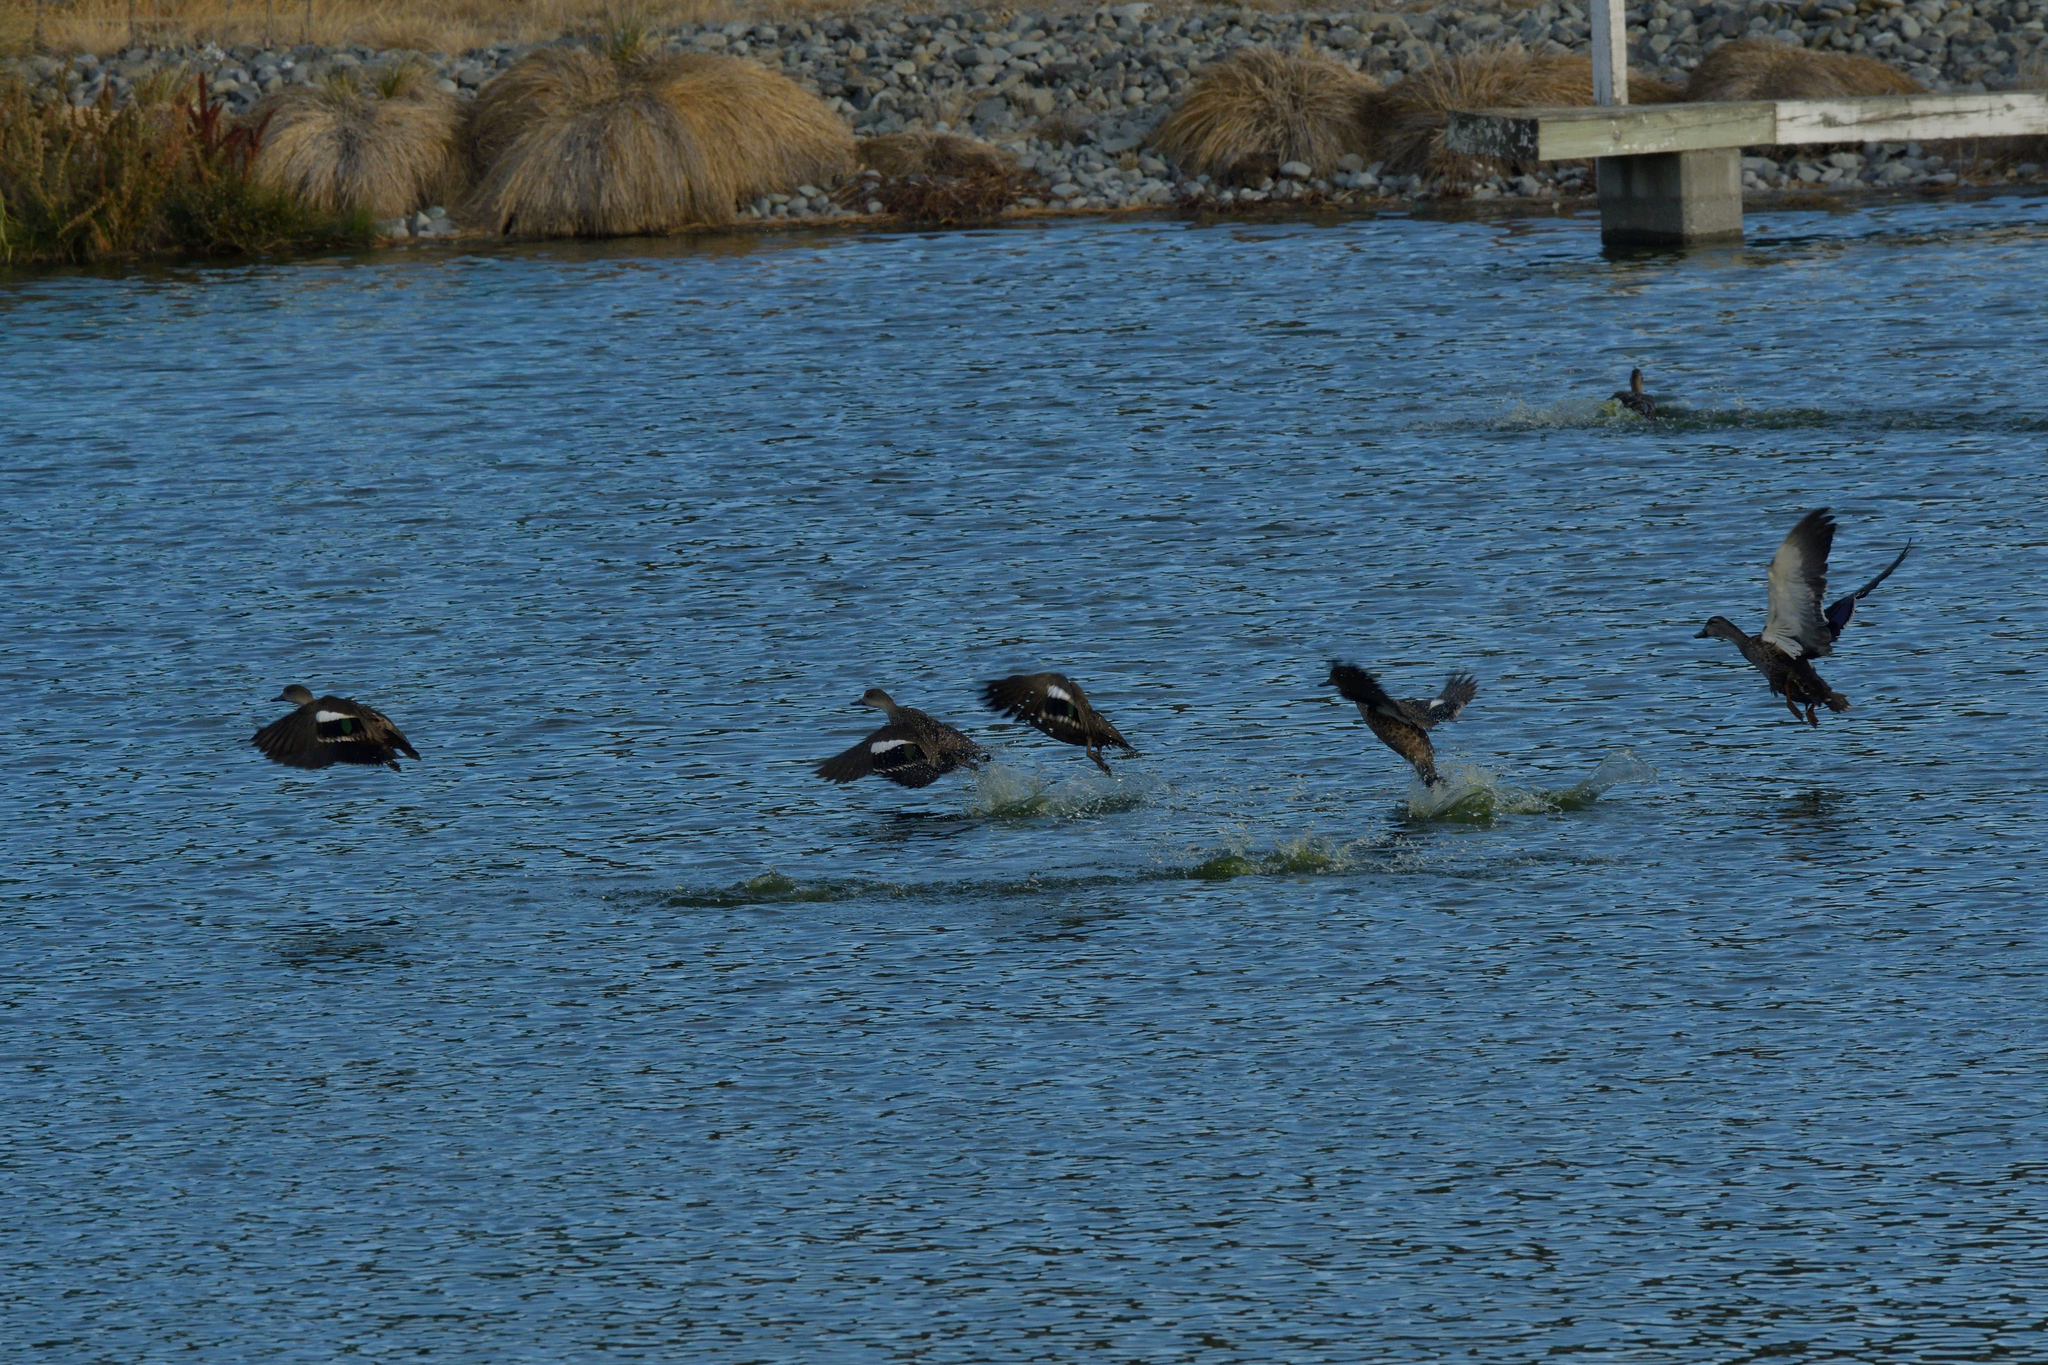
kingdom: Animalia
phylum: Chordata
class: Aves
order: Anseriformes
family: Anatidae
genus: Anas
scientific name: Anas gracilis
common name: Grey teal
